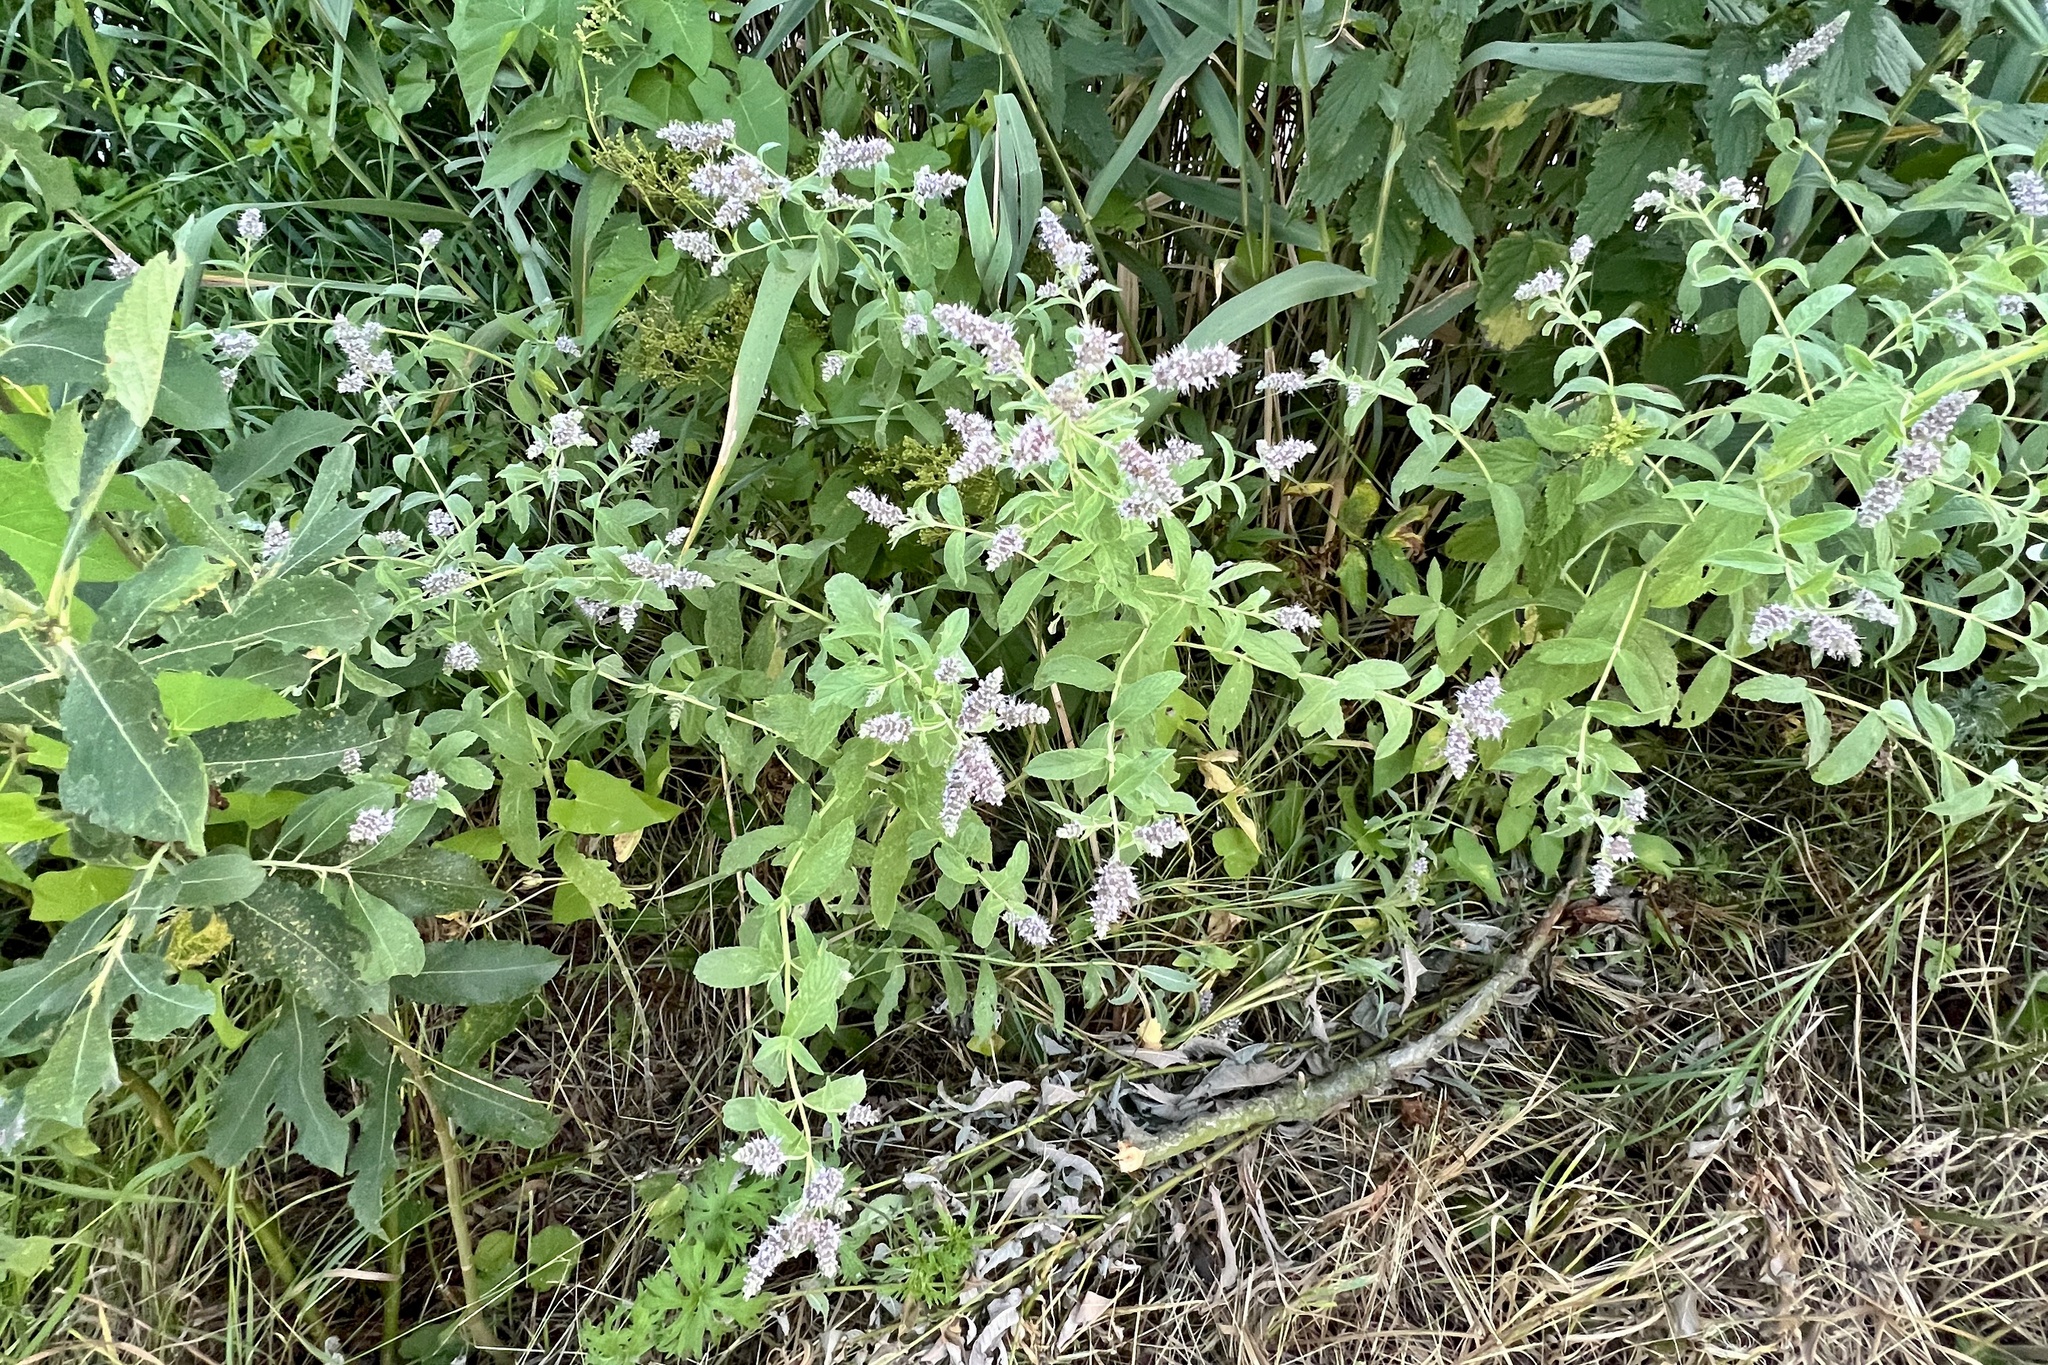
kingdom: Plantae
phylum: Tracheophyta
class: Magnoliopsida
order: Lamiales
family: Lamiaceae
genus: Mentha
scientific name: Mentha longifolia
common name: Horse mint
